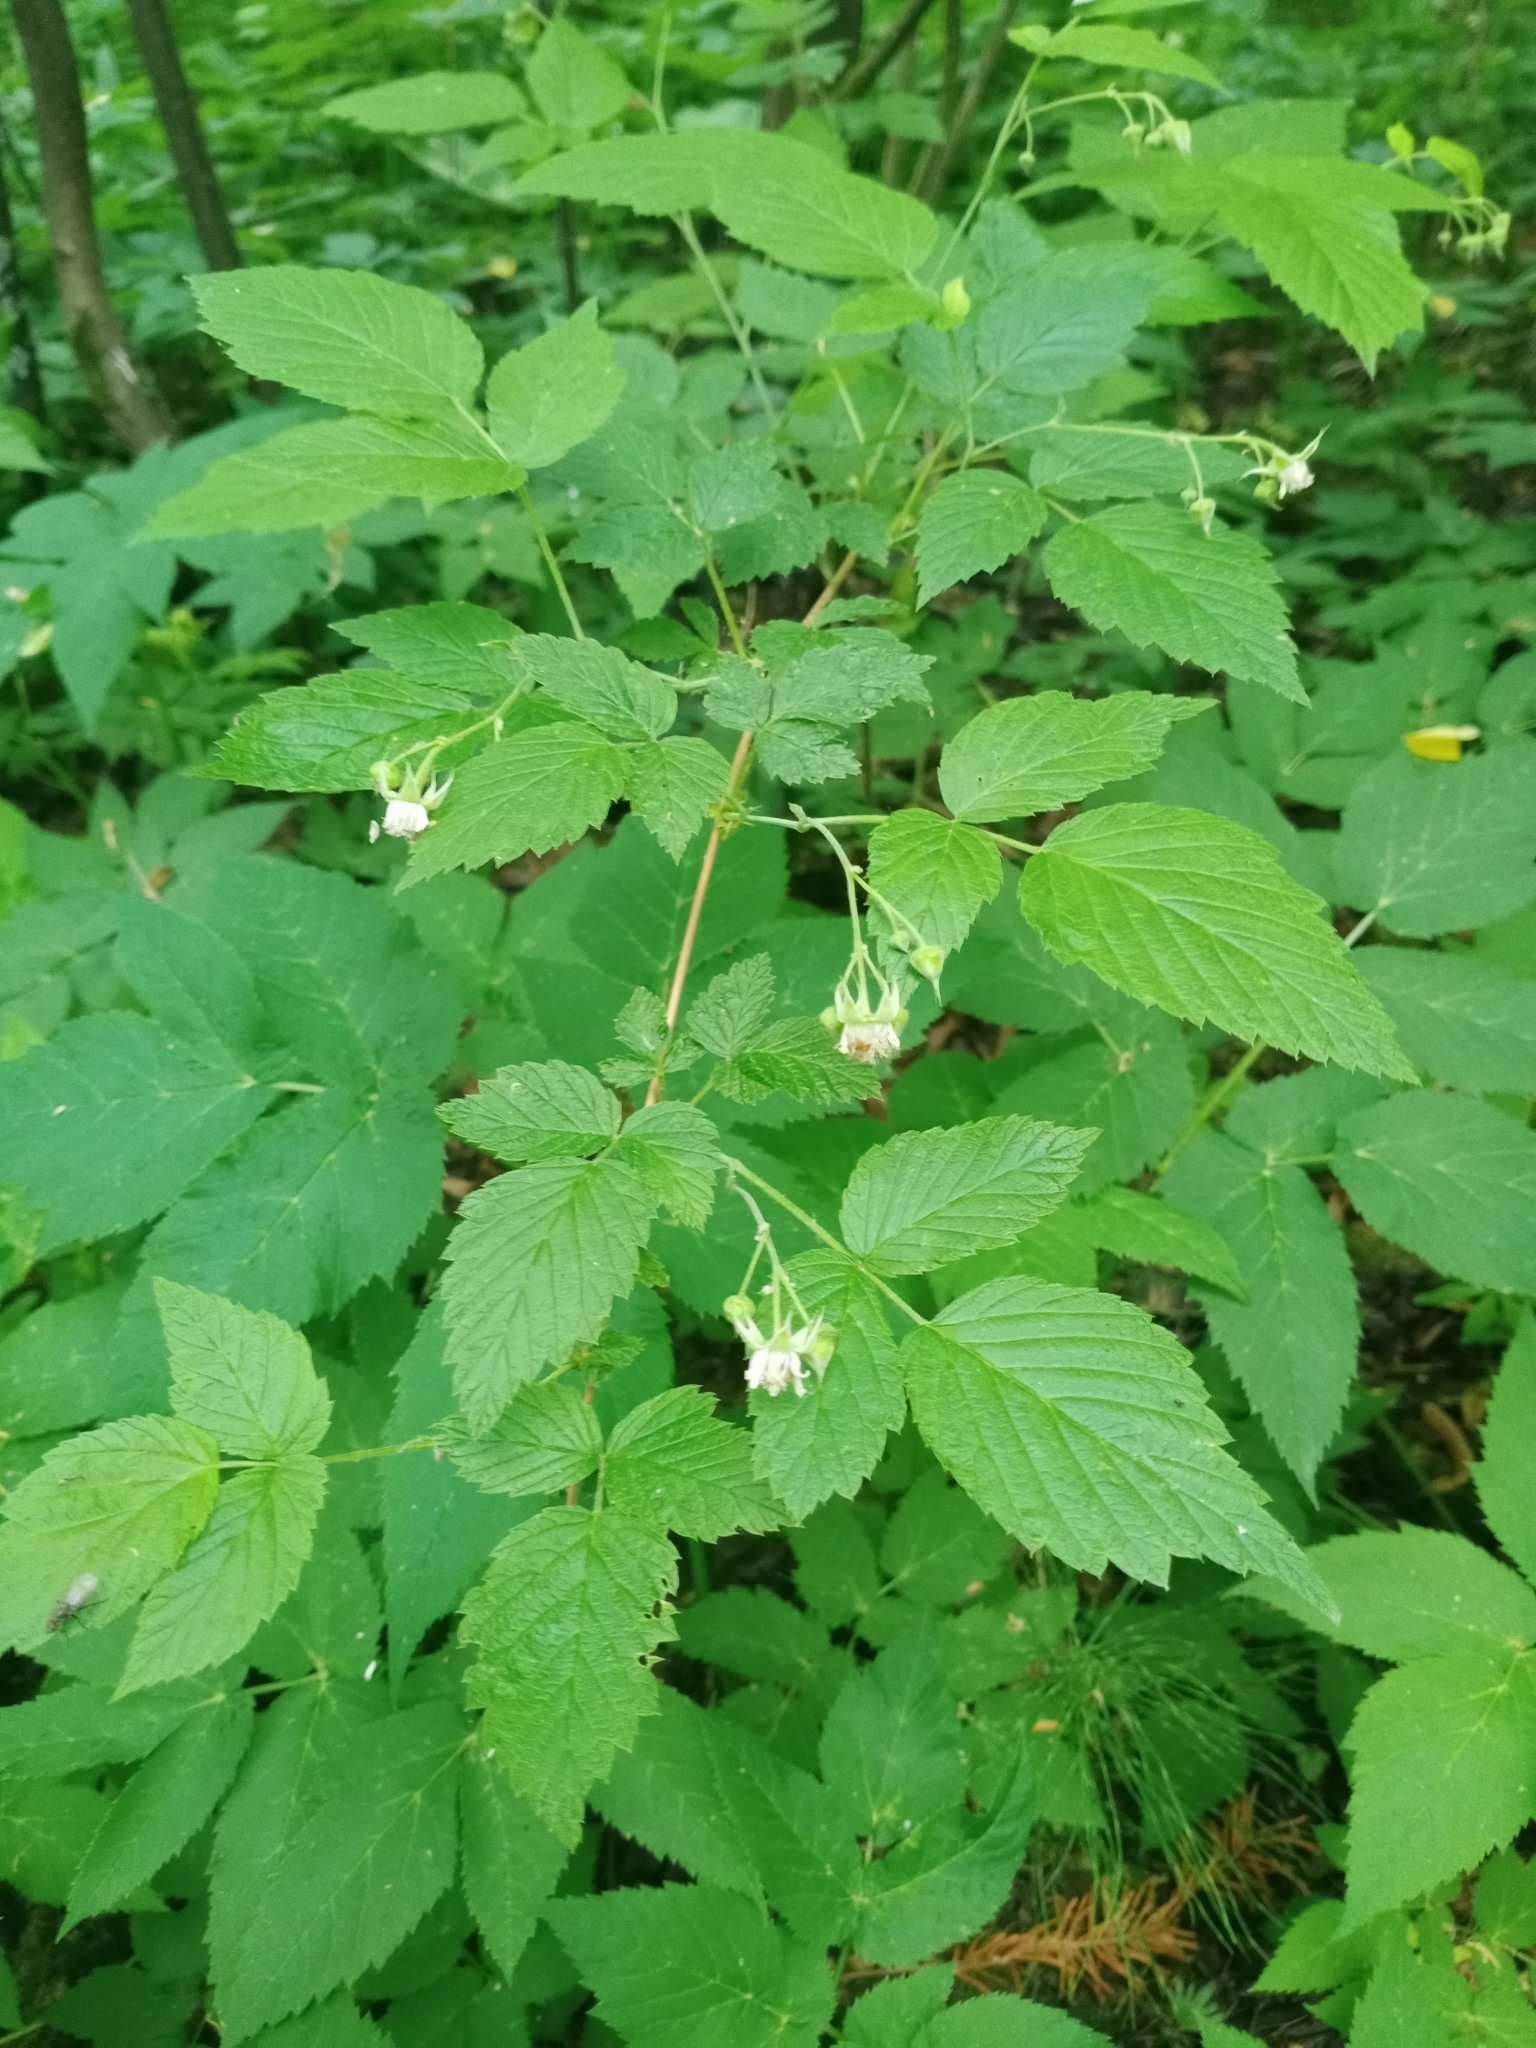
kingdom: Plantae
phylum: Tracheophyta
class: Magnoliopsida
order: Rosales
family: Rosaceae
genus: Rubus
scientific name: Rubus idaeus
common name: Raspberry
